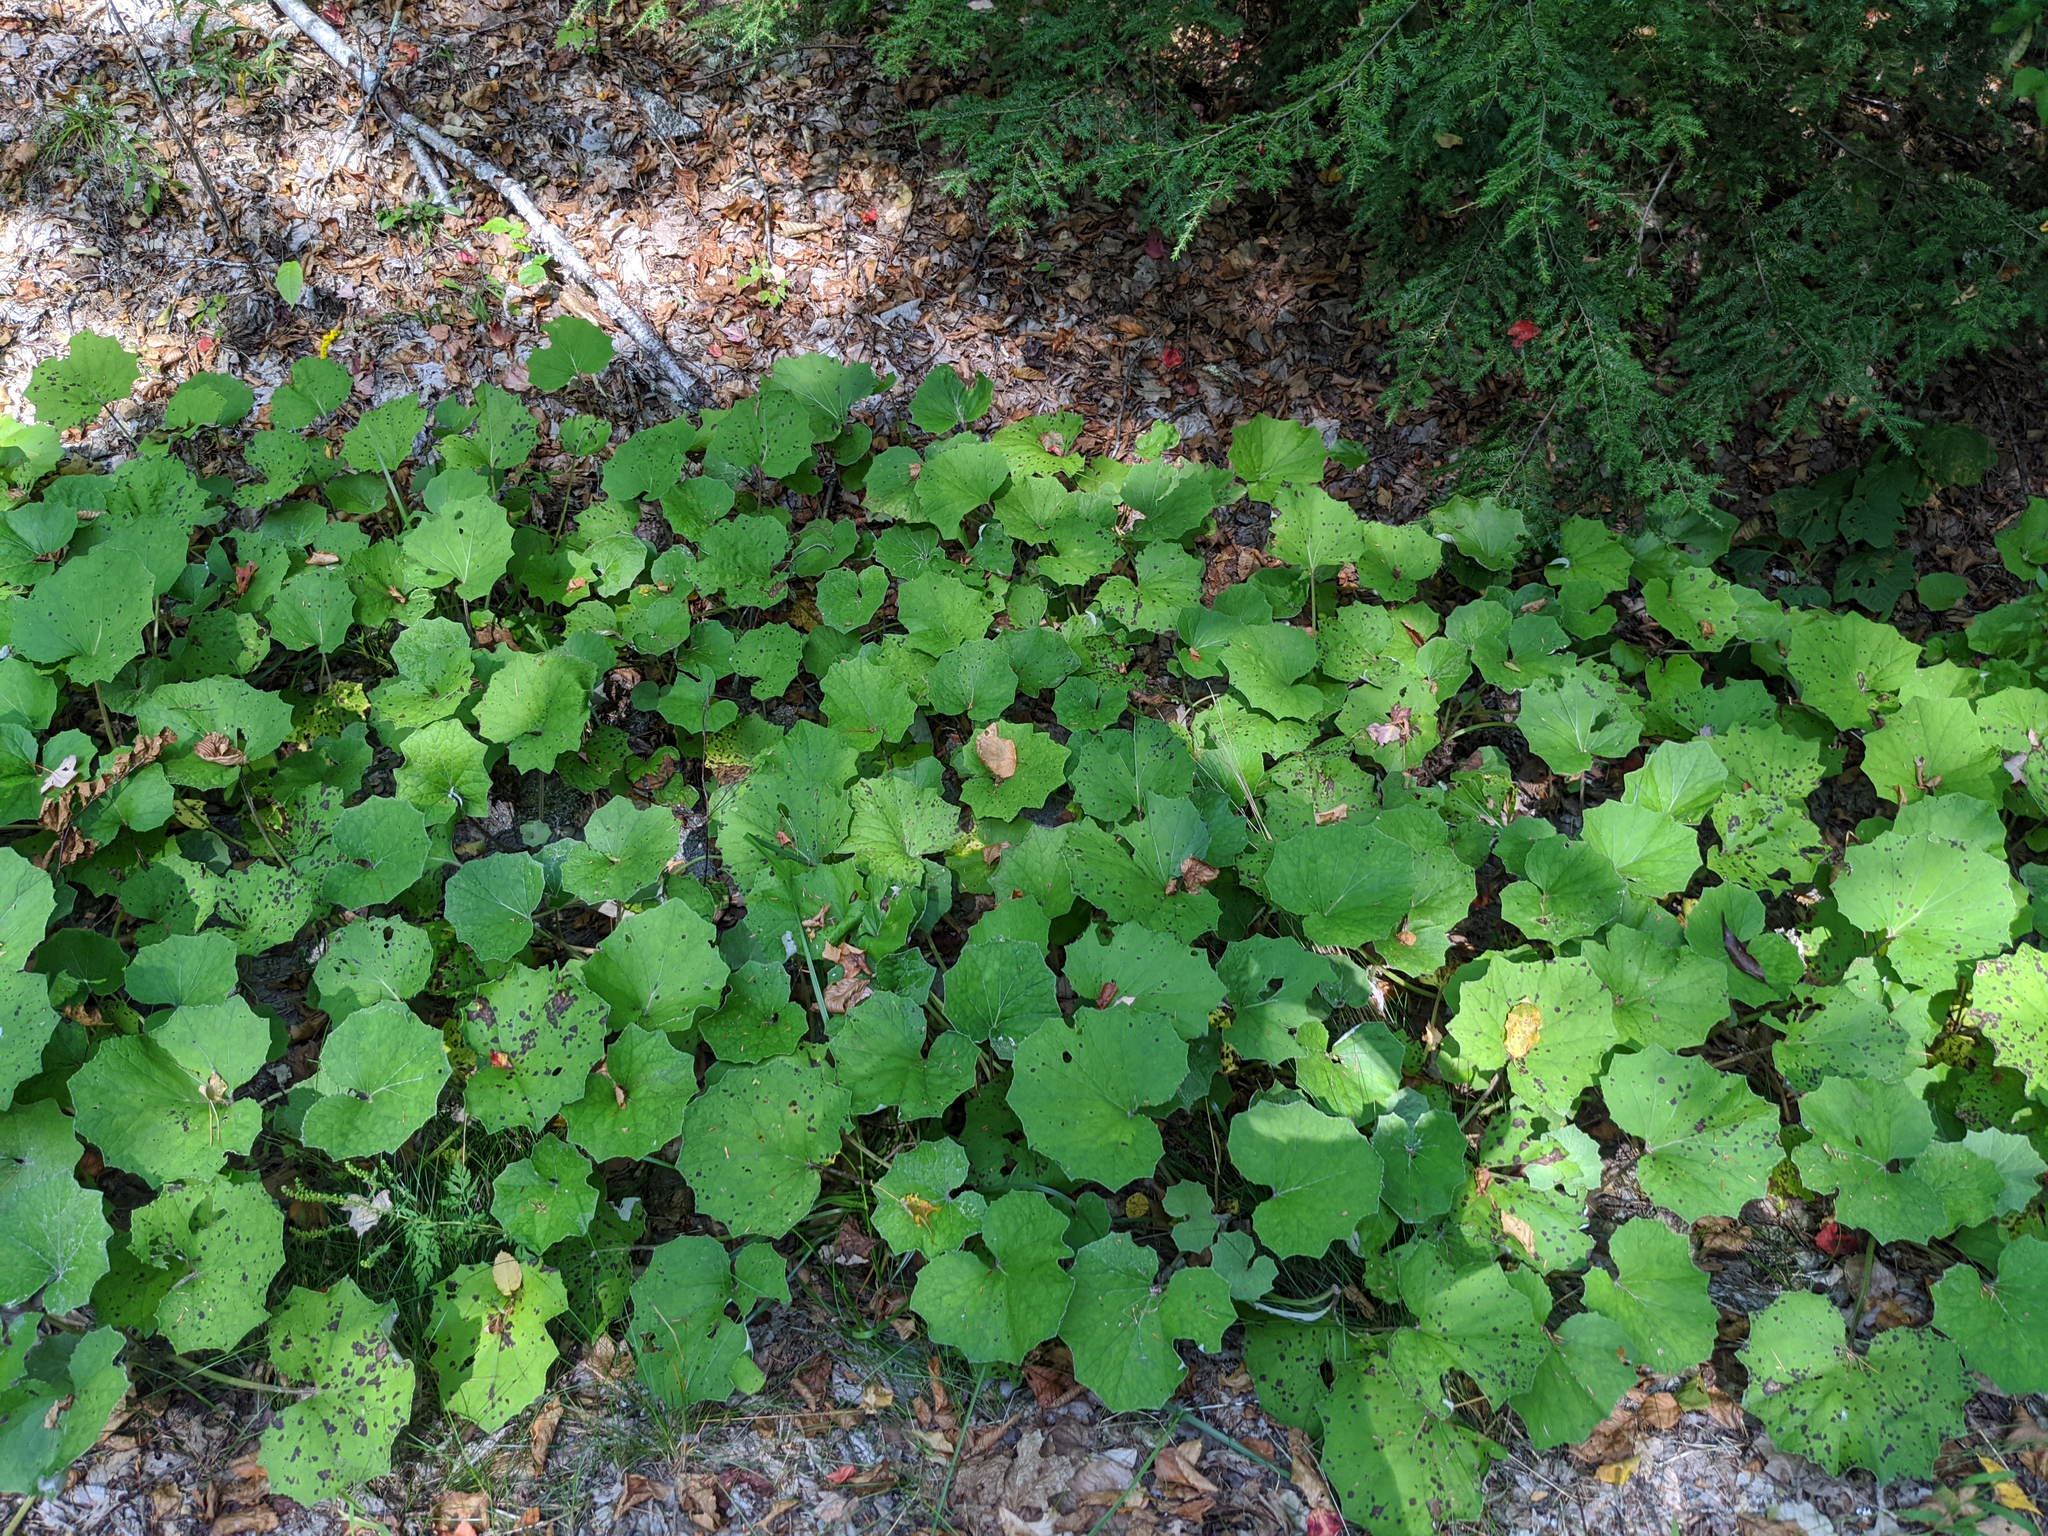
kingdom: Plantae
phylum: Tracheophyta
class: Magnoliopsida
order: Asterales
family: Asteraceae
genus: Tussilago
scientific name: Tussilago farfara
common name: Coltsfoot
